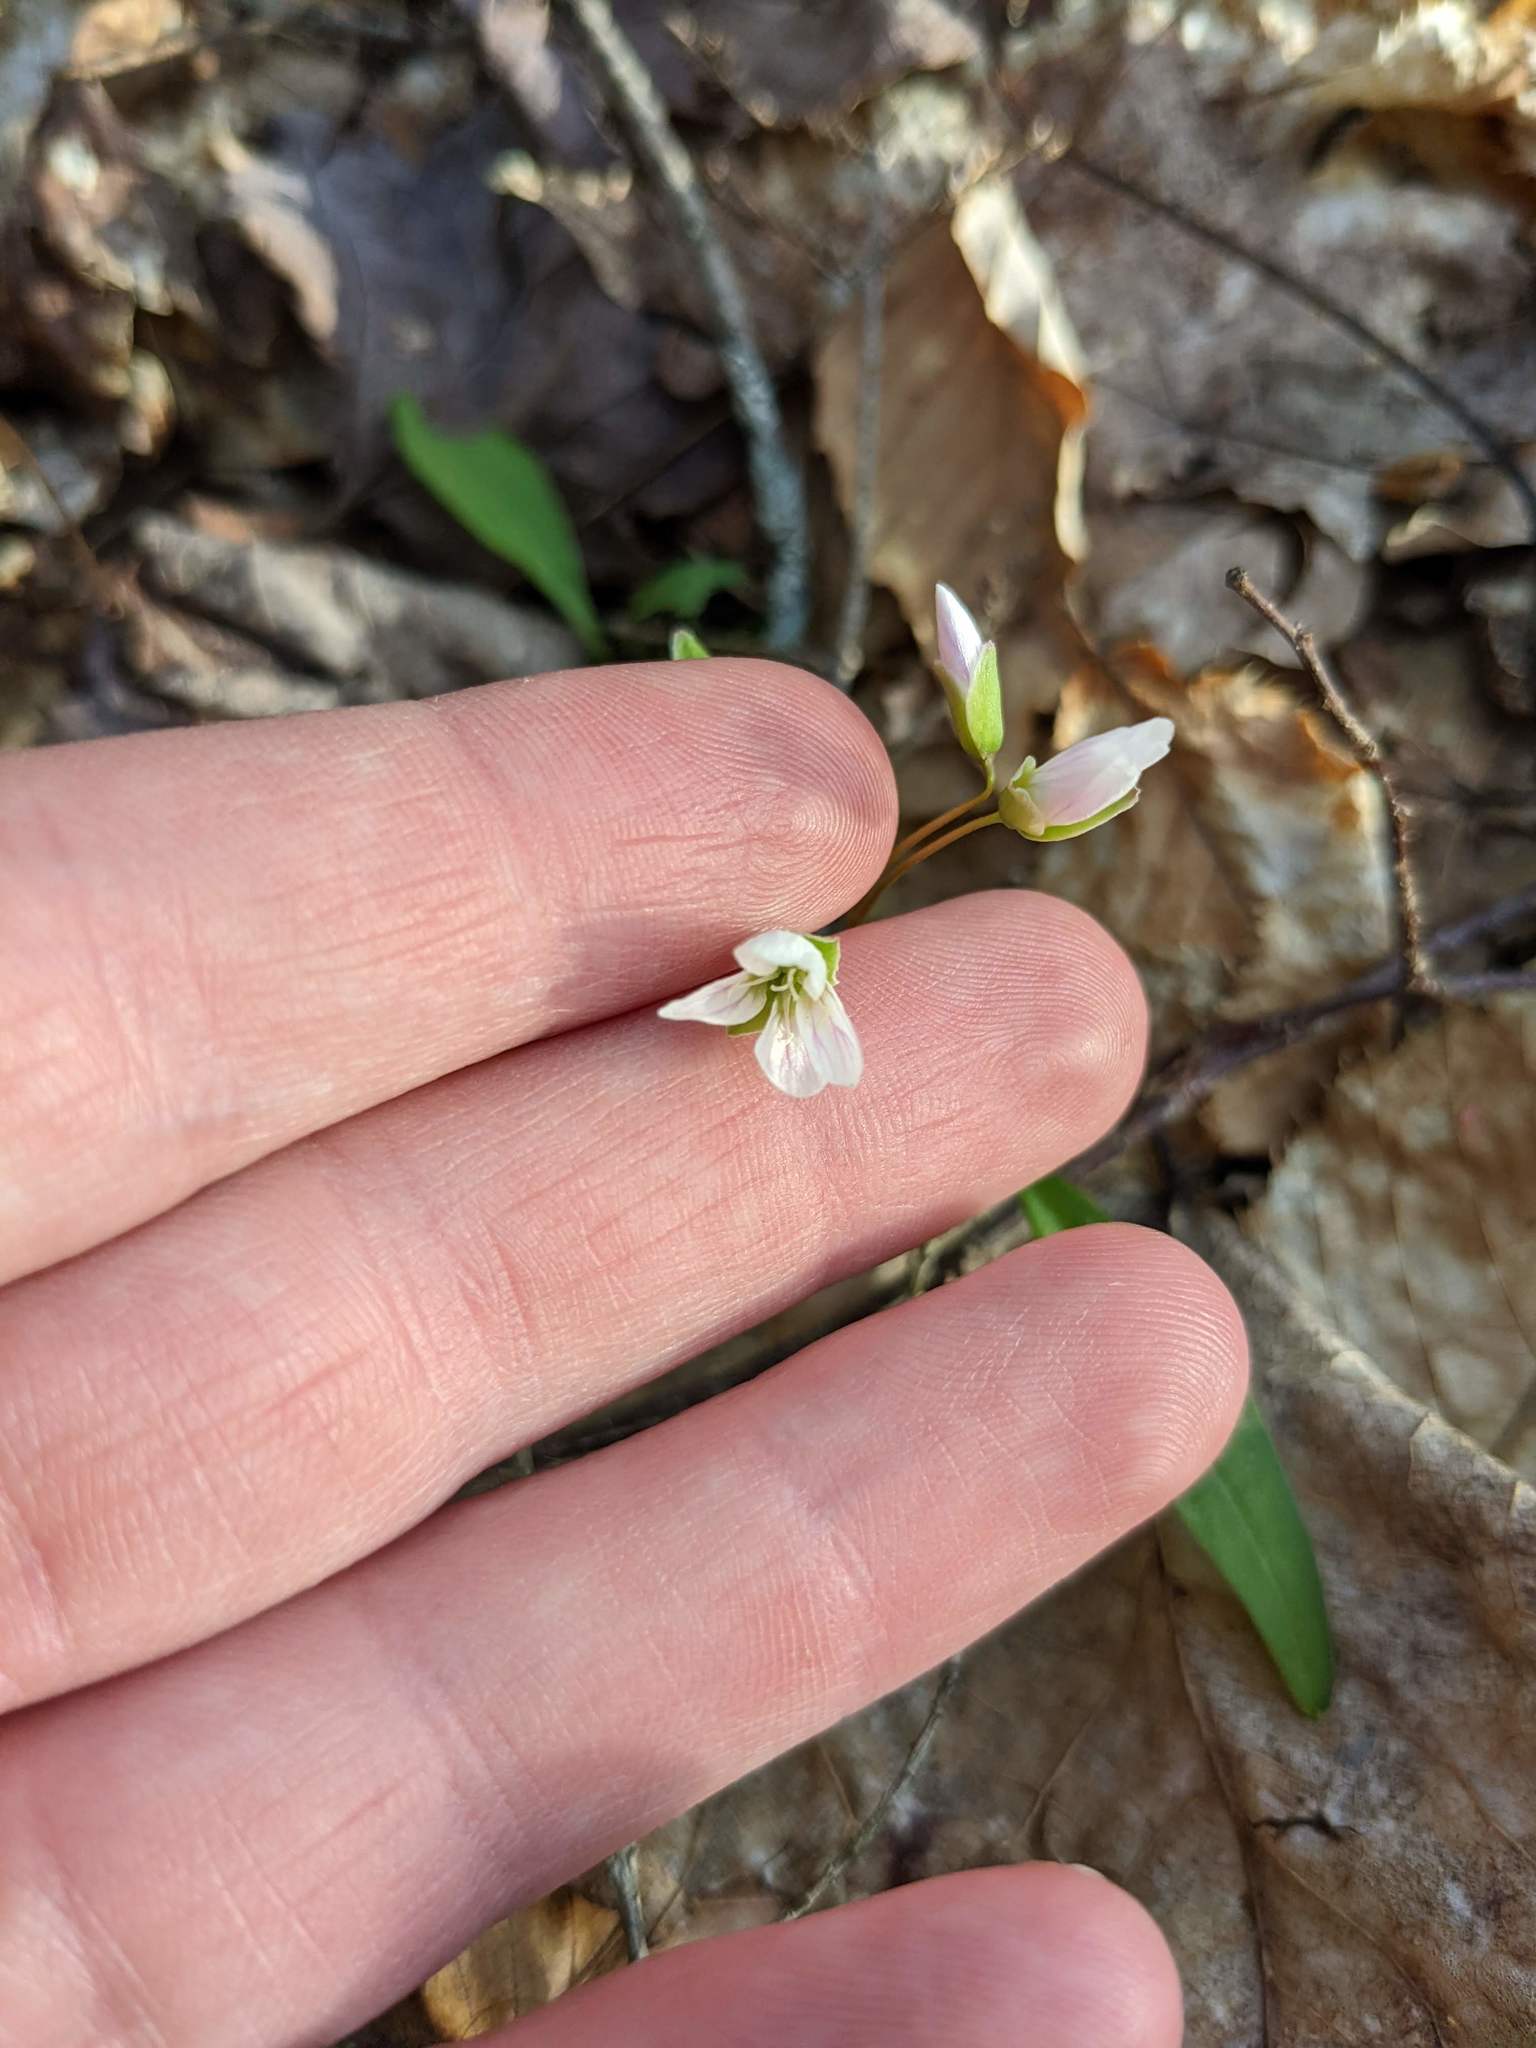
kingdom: Plantae
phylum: Tracheophyta
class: Magnoliopsida
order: Caryophyllales
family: Montiaceae
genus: Claytonia
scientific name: Claytonia caroliniana
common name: Carolina spring beauty
